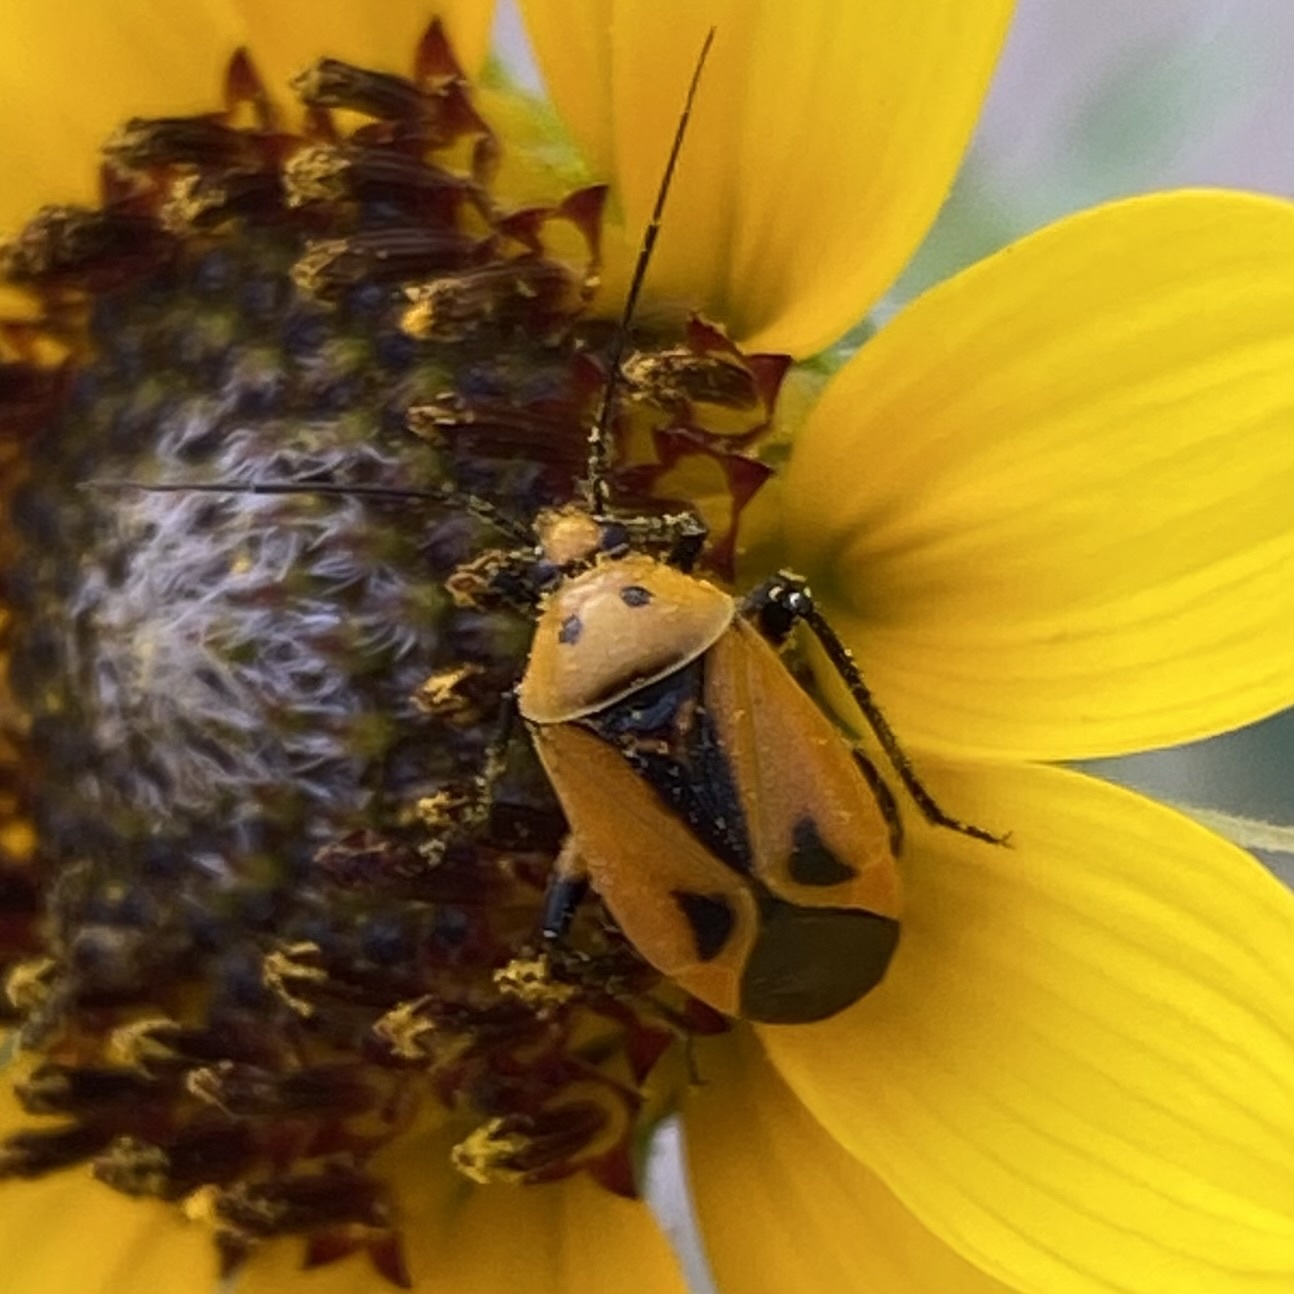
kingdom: Animalia
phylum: Arthropoda
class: Insecta
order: Hemiptera
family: Miridae
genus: Neocapsus
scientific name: Neocapsus fasciativentris
